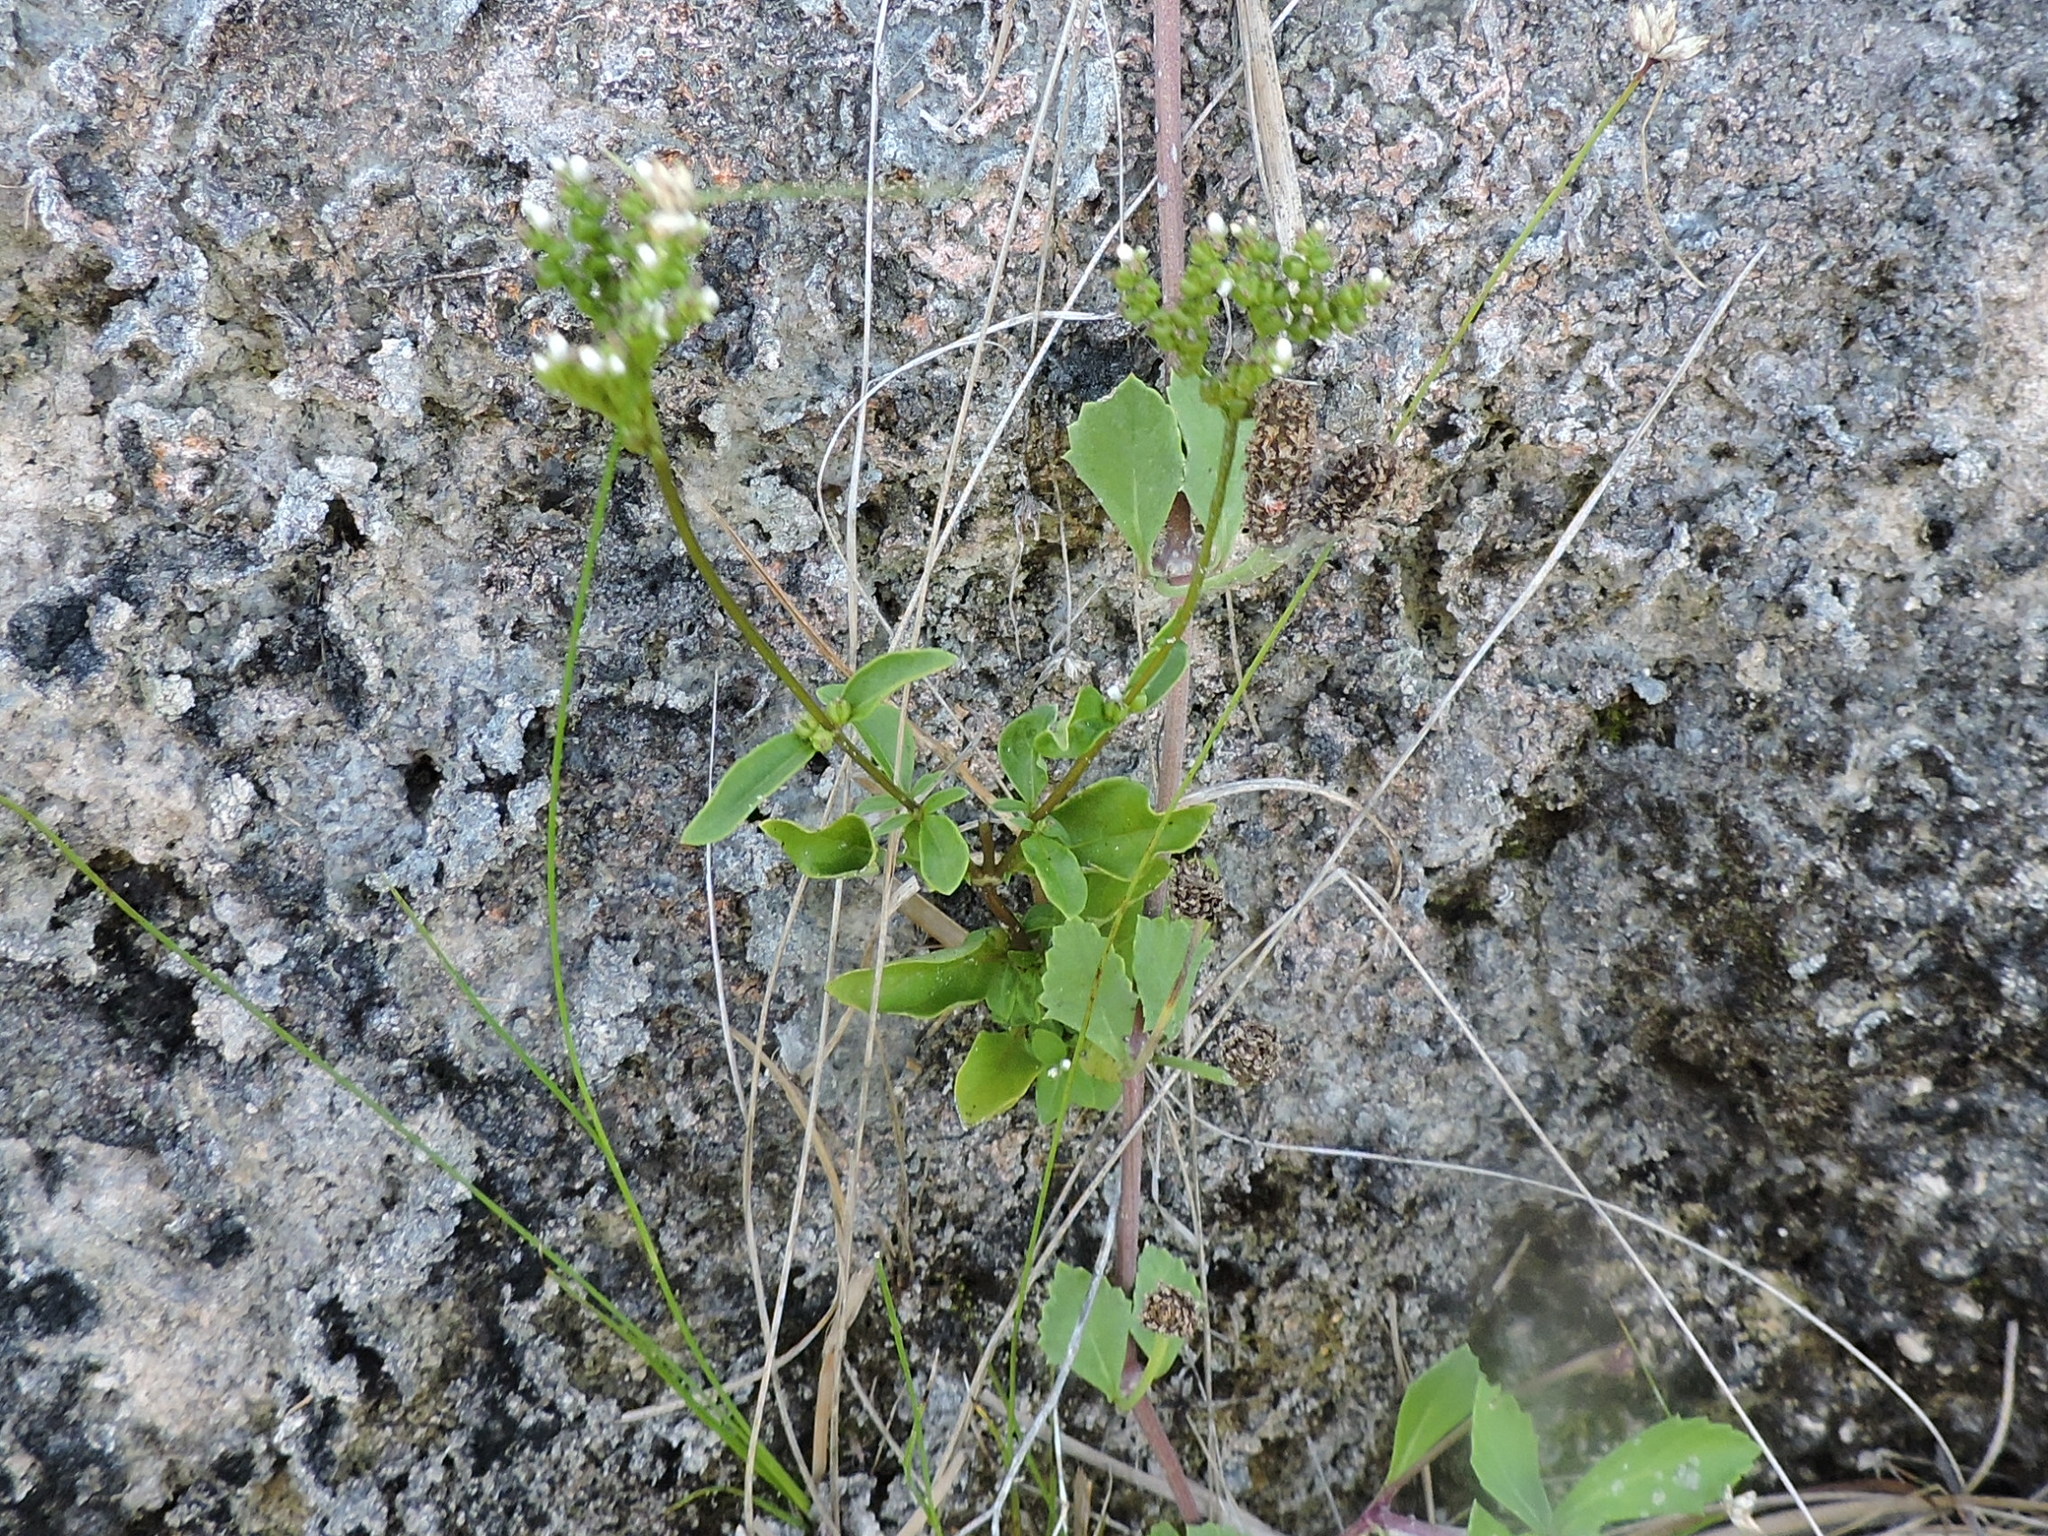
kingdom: Plantae
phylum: Tracheophyta
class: Magnoliopsida
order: Gentianales
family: Loganiaceae
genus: Mitreola
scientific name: Mitreola petiolata
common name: Lax hornpod
